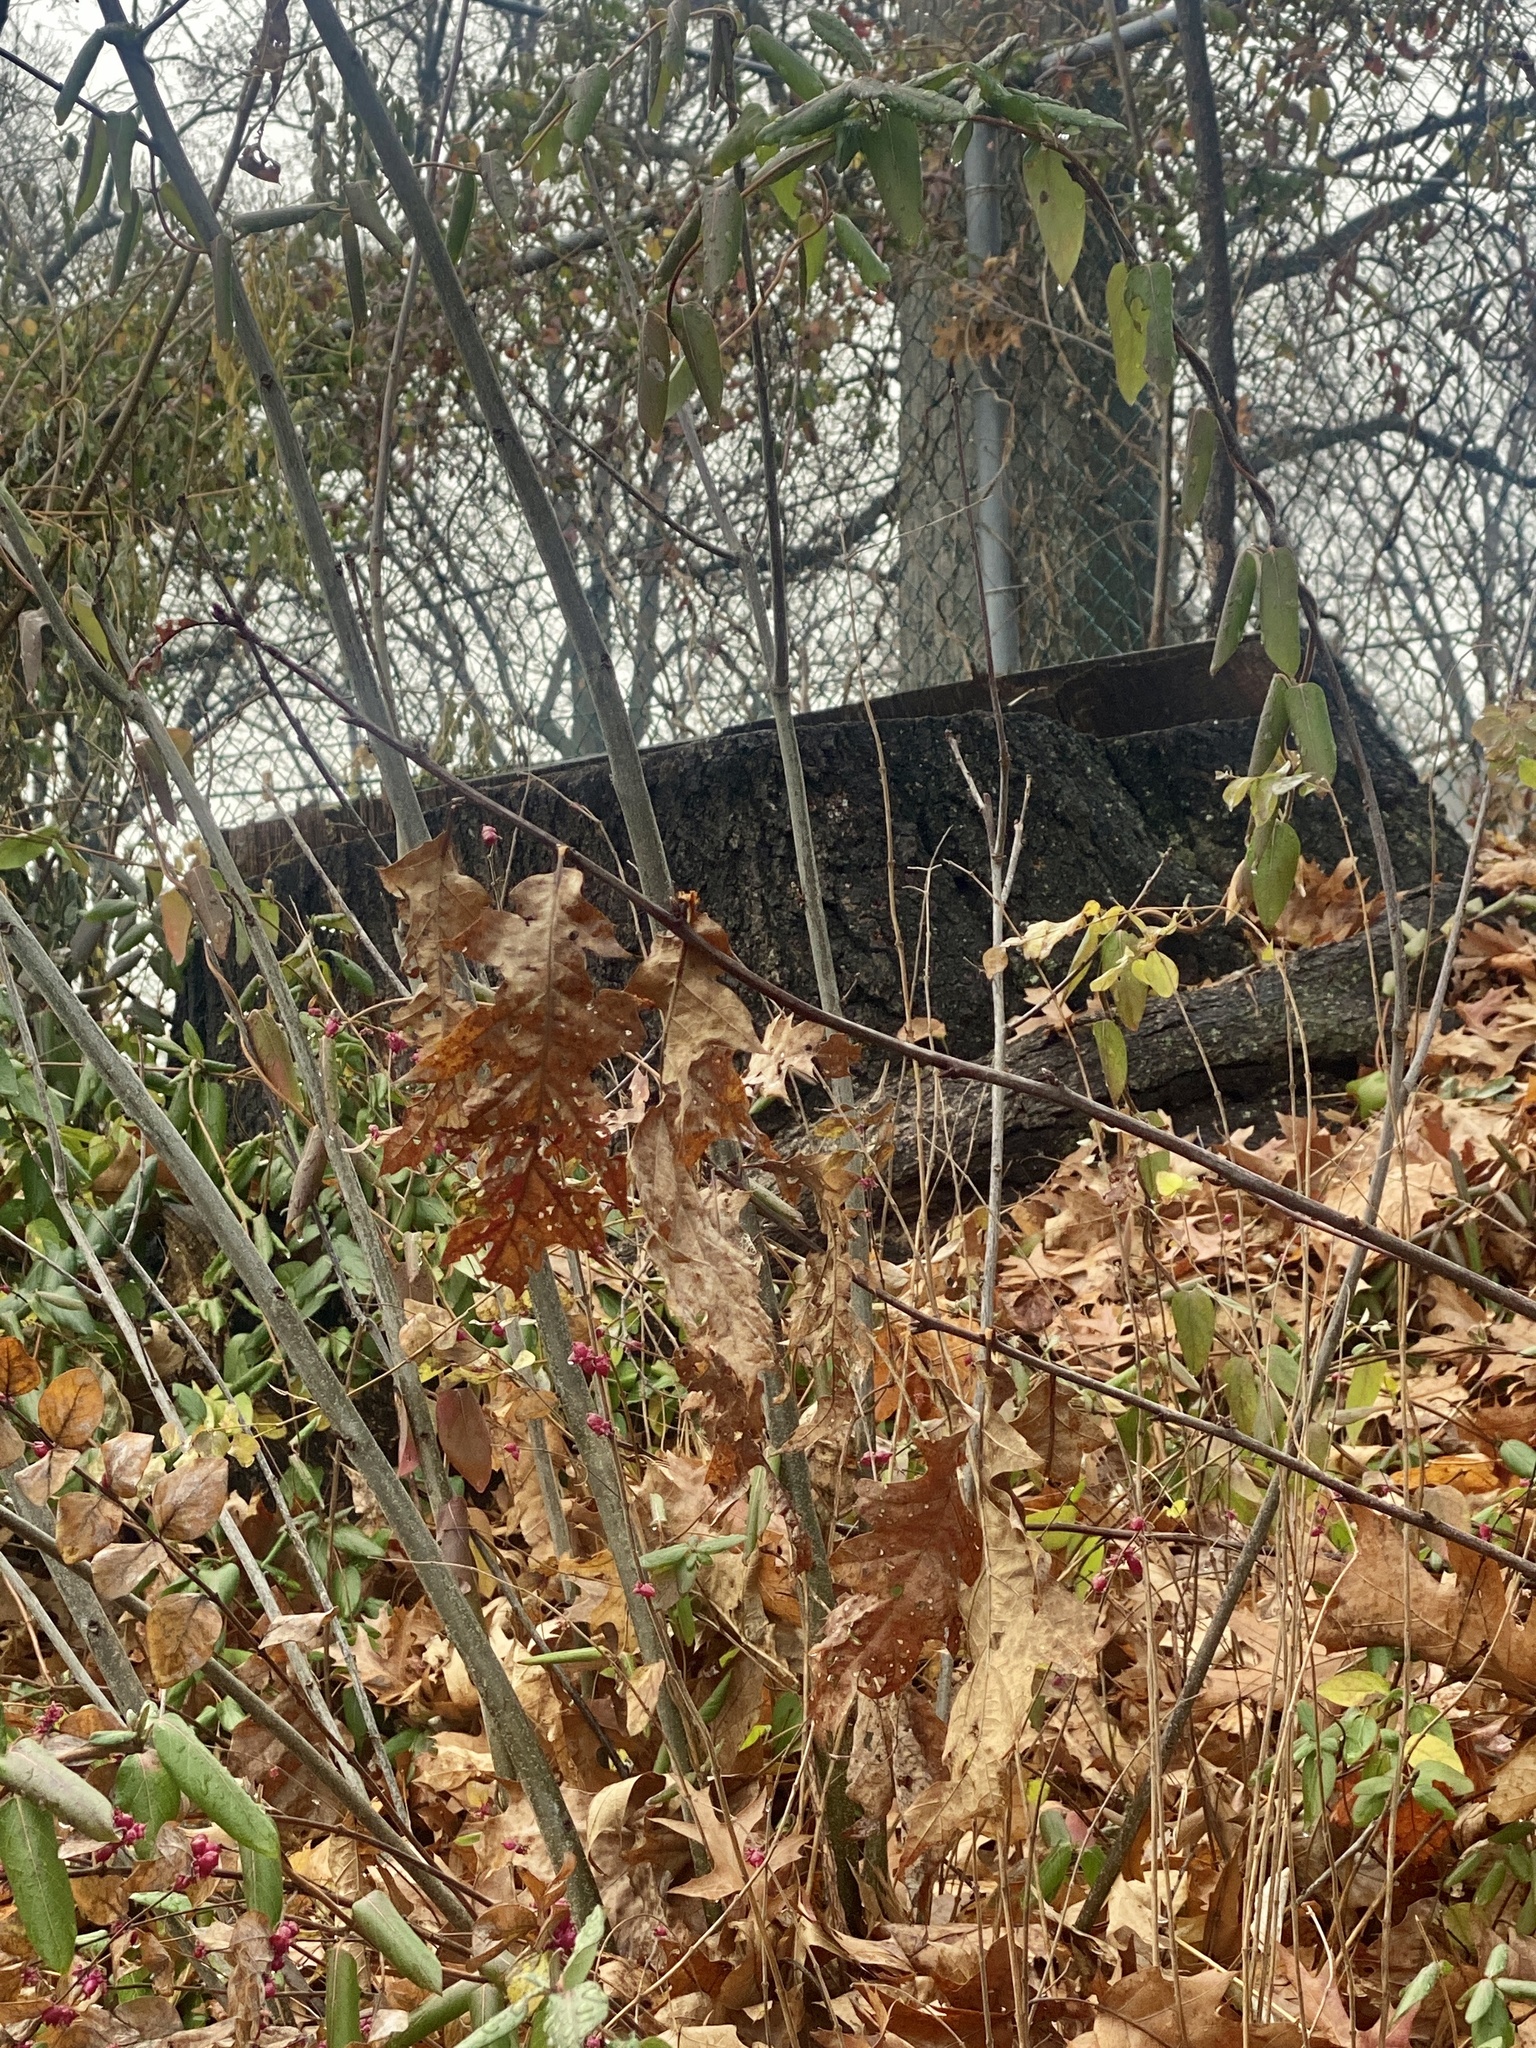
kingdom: Plantae
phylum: Tracheophyta
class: Magnoliopsida
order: Fagales
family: Fagaceae
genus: Quercus
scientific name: Quercus rubra
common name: Red oak
